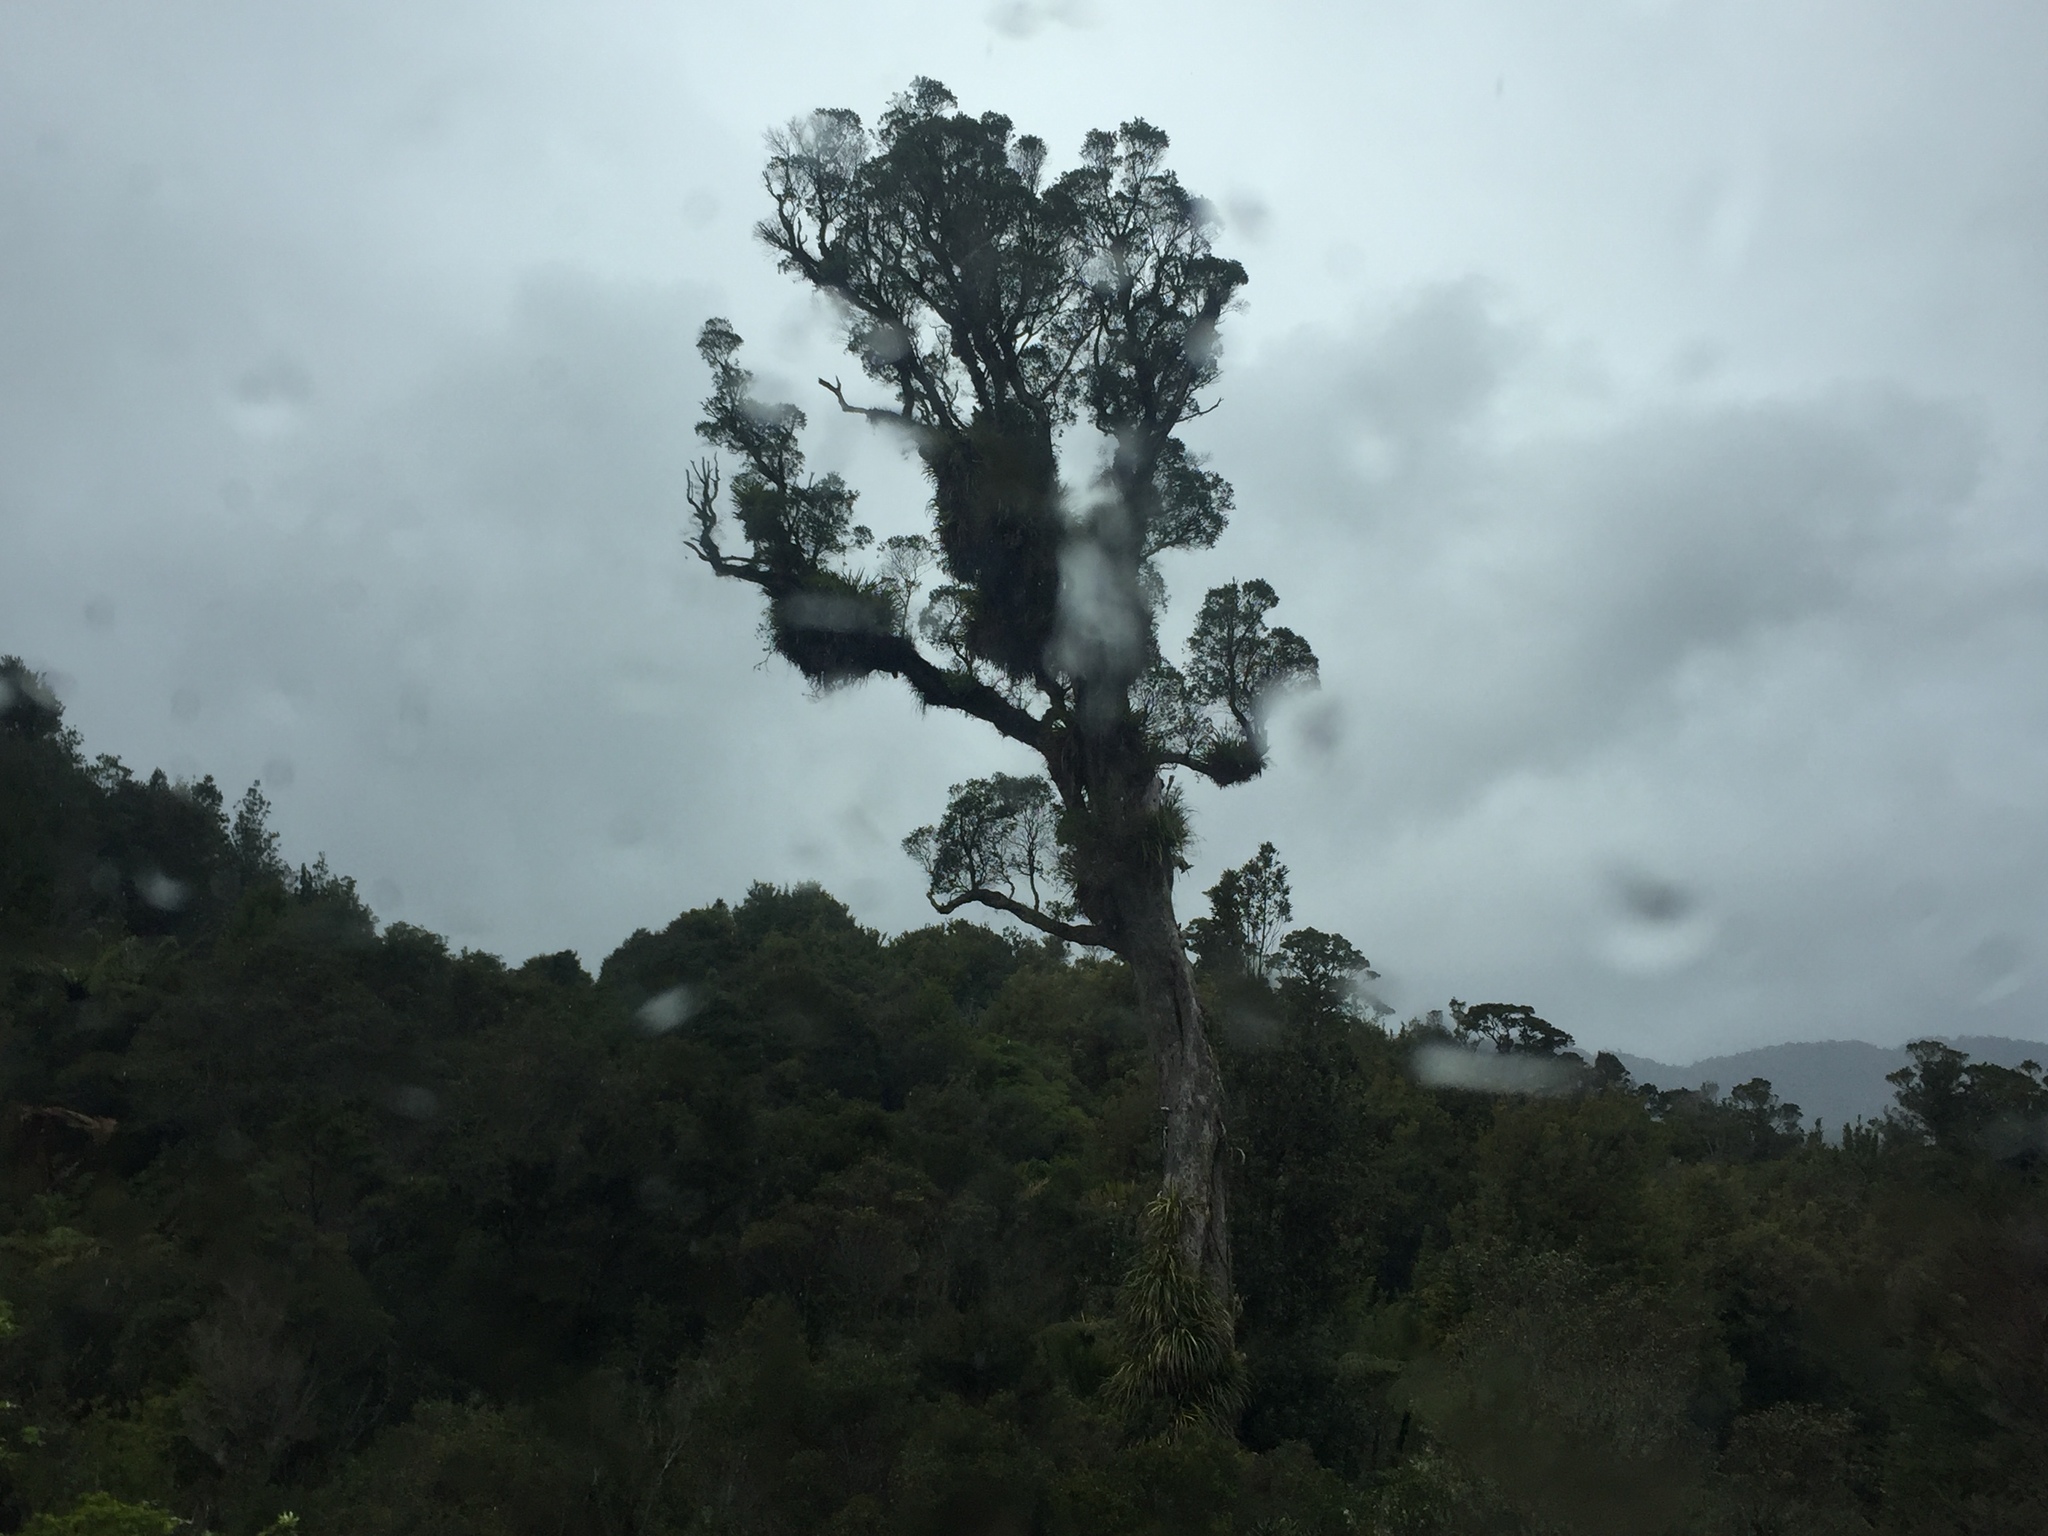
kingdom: Plantae
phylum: Tracheophyta
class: Magnoliopsida
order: Myrtales
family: Myrtaceae
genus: Metrosideros
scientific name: Metrosideros robusta
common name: Northern rata
